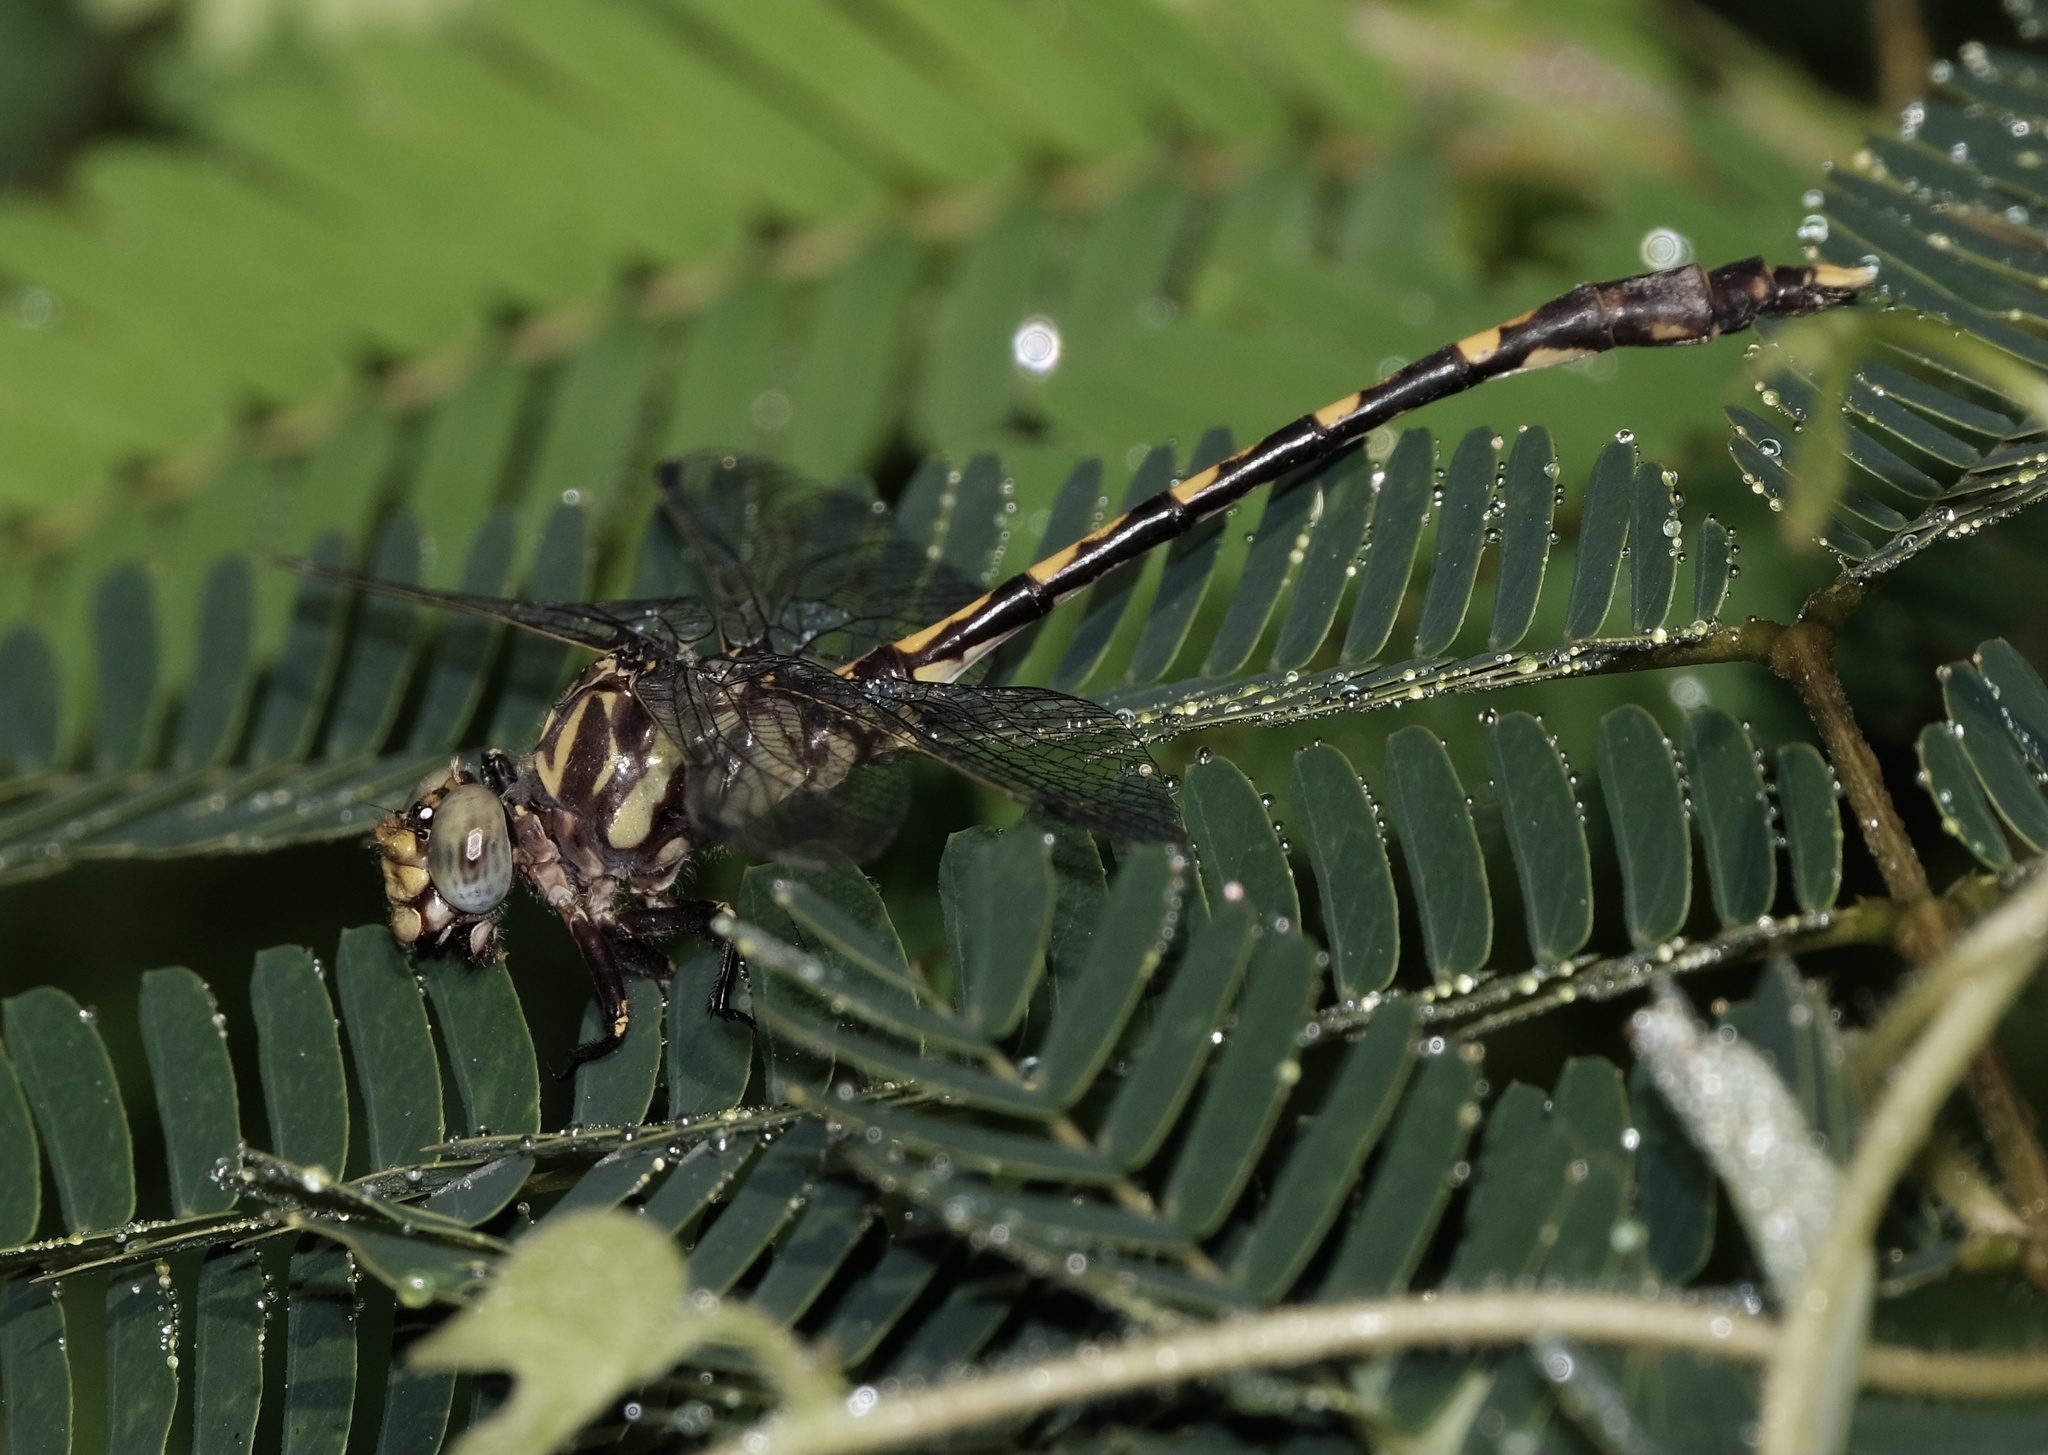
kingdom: Animalia
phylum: Arthropoda
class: Insecta
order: Odonata
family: Gomphidae
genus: Progomphus
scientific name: Progomphus obscurus
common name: Common sanddragon
